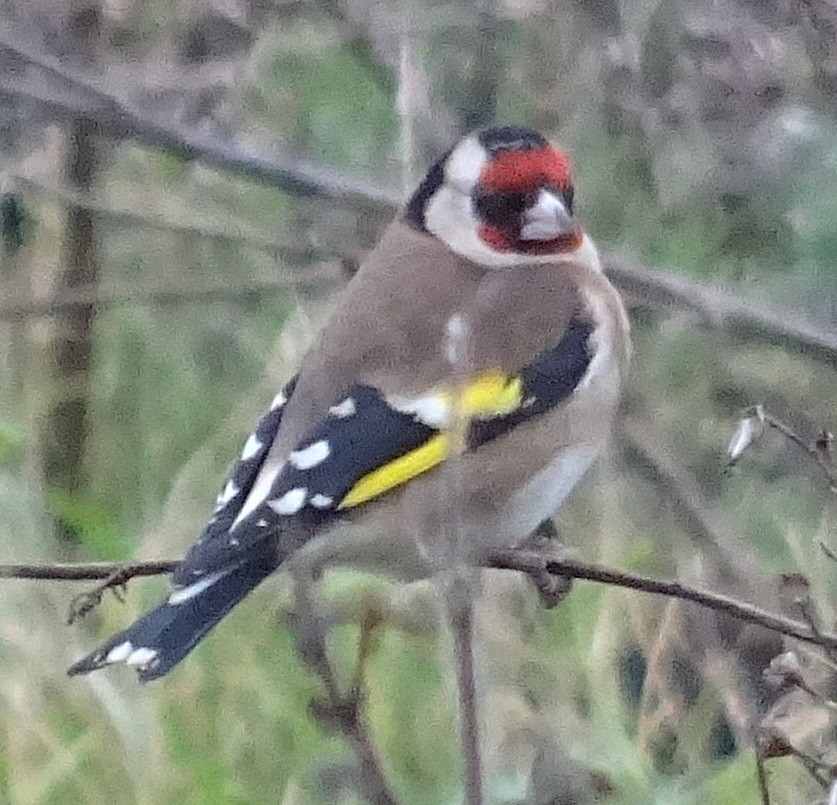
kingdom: Animalia
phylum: Chordata
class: Aves
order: Passeriformes
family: Fringillidae
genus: Carduelis
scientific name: Carduelis carduelis
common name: European goldfinch
